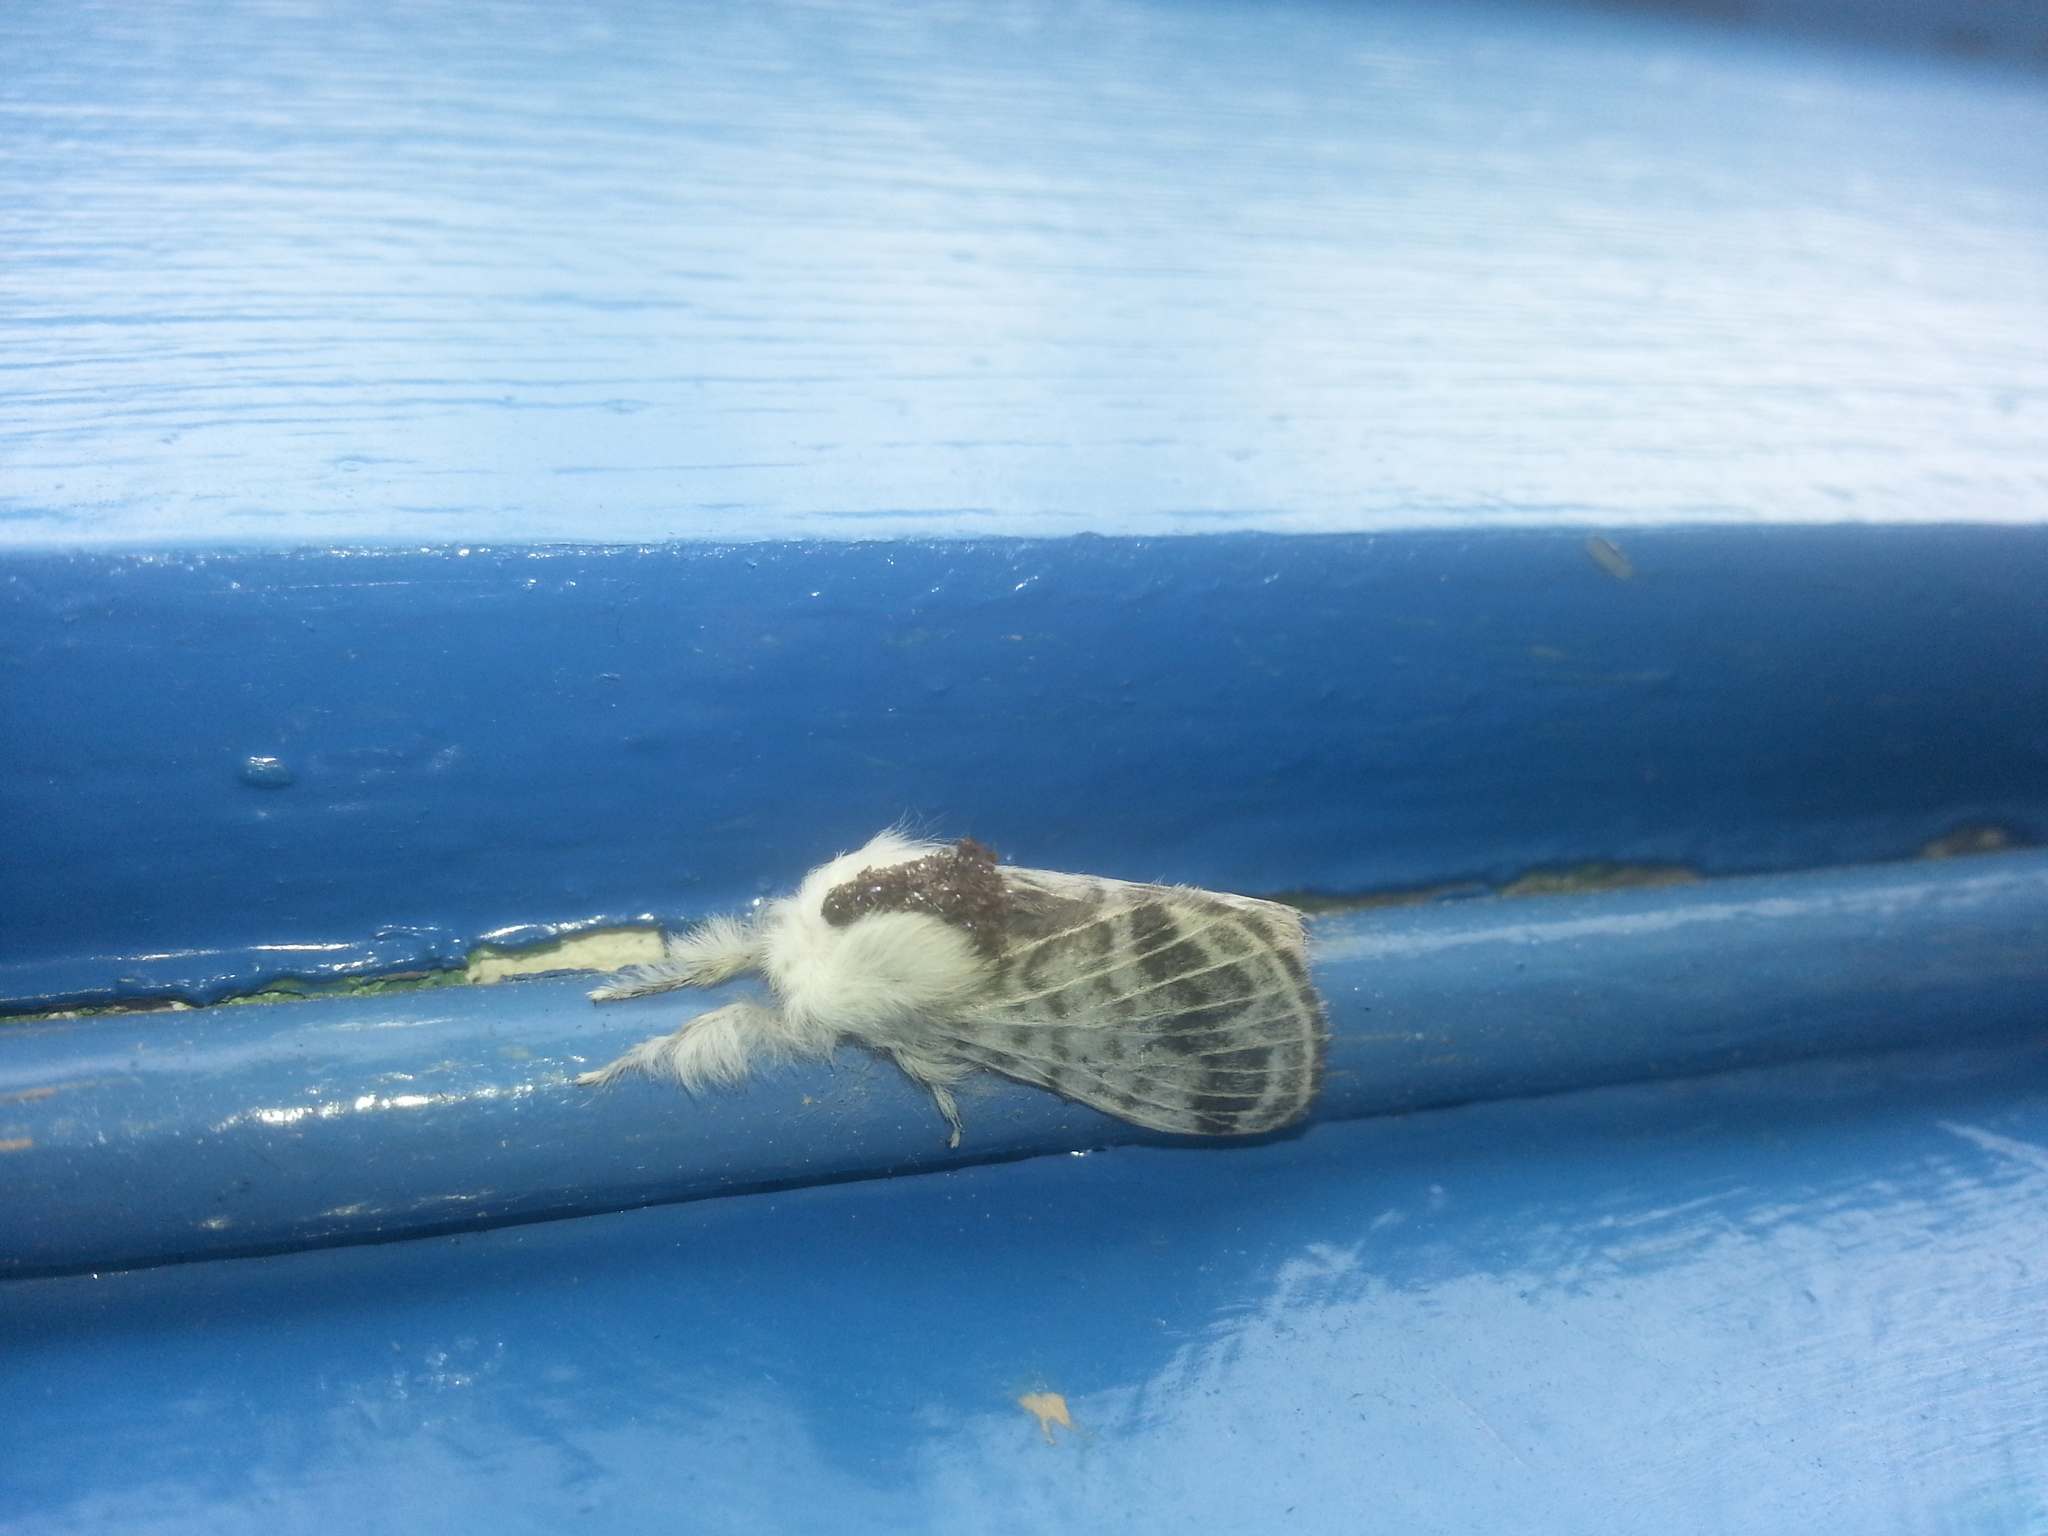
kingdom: Animalia
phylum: Arthropoda
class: Insecta
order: Lepidoptera
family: Lasiocampidae
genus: Tolype
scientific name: Tolype velleda
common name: Large tolype moth
